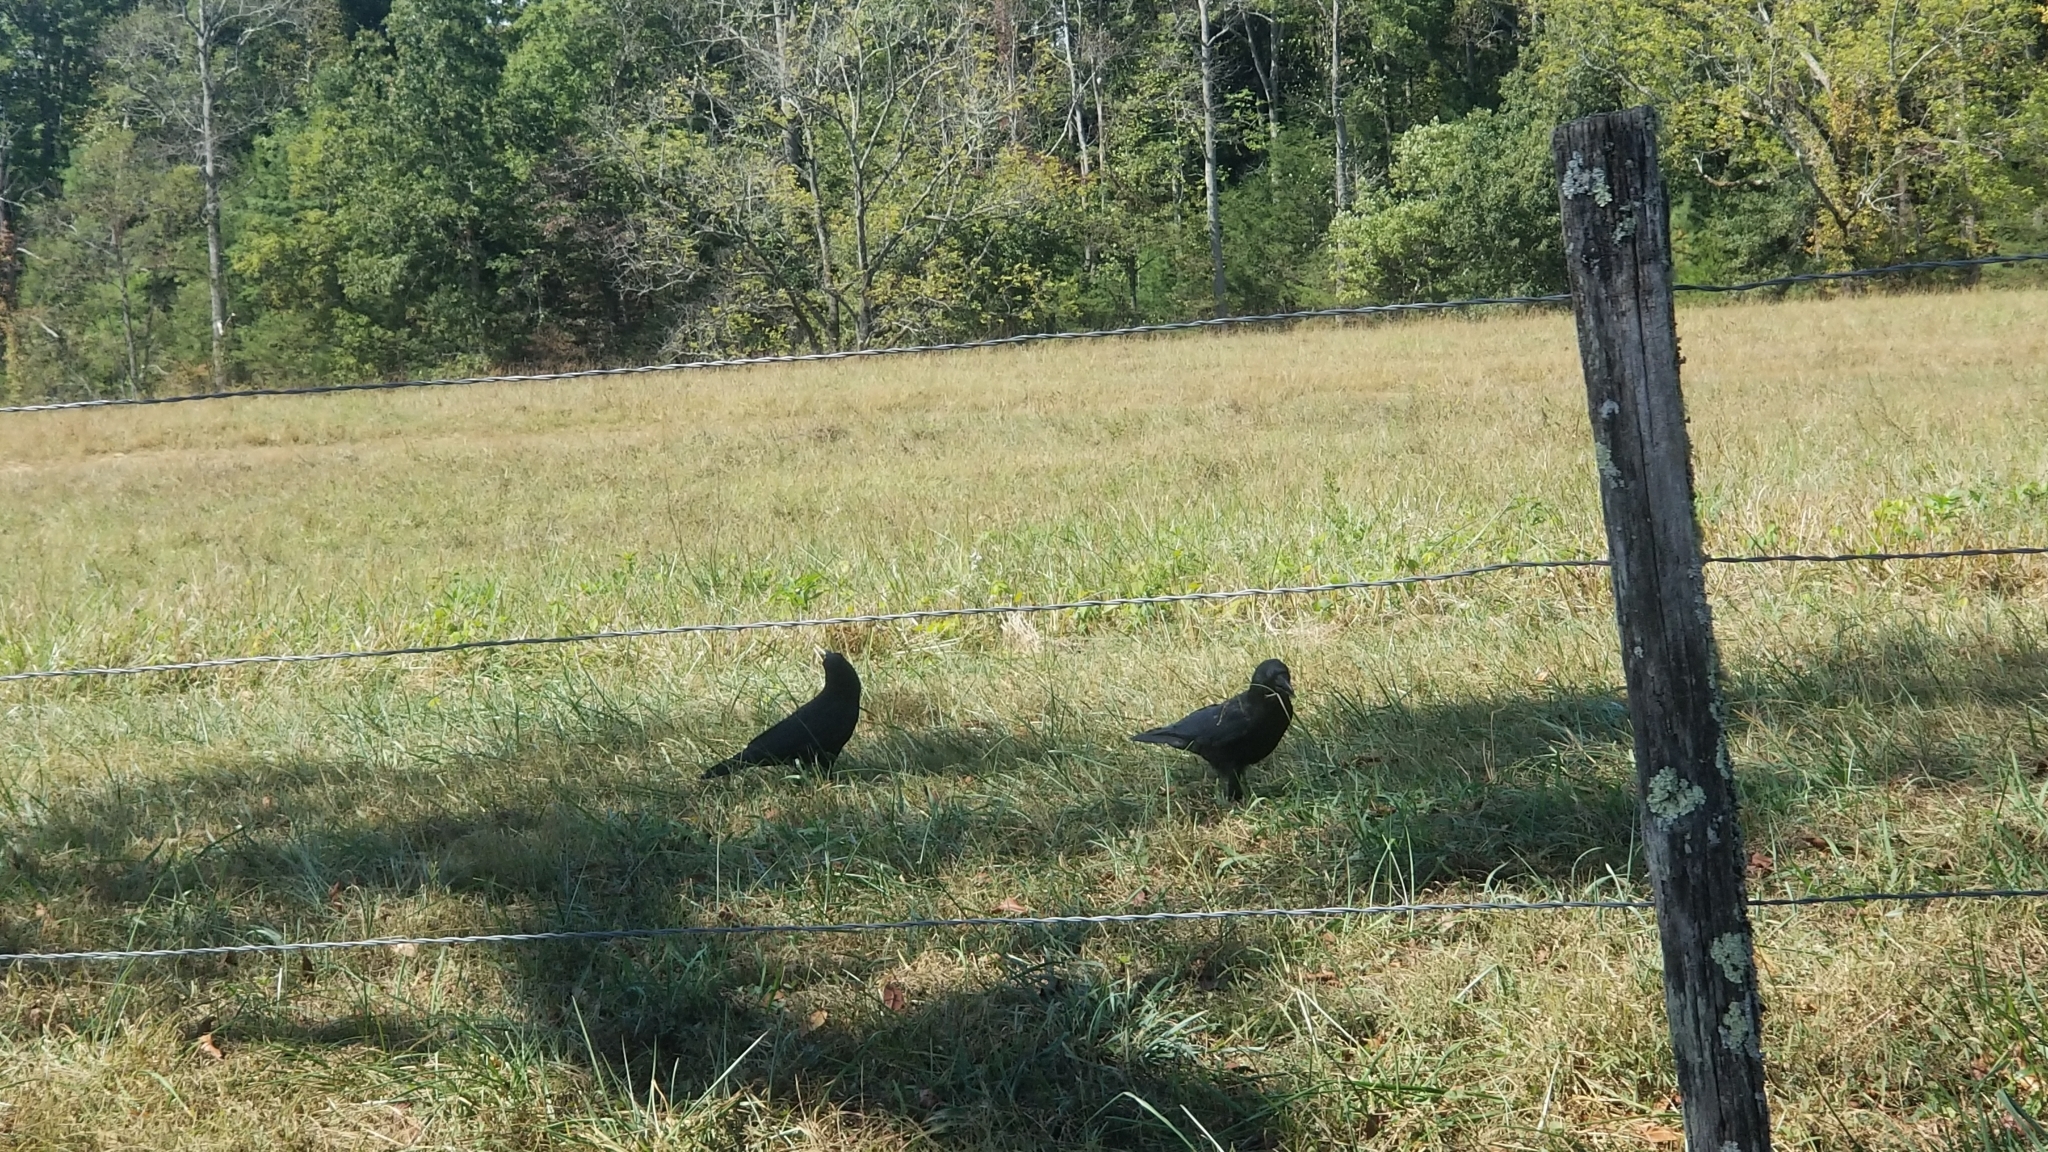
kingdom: Animalia
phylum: Chordata
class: Aves
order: Passeriformes
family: Corvidae
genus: Corvus
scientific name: Corvus brachyrhynchos
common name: American crow
